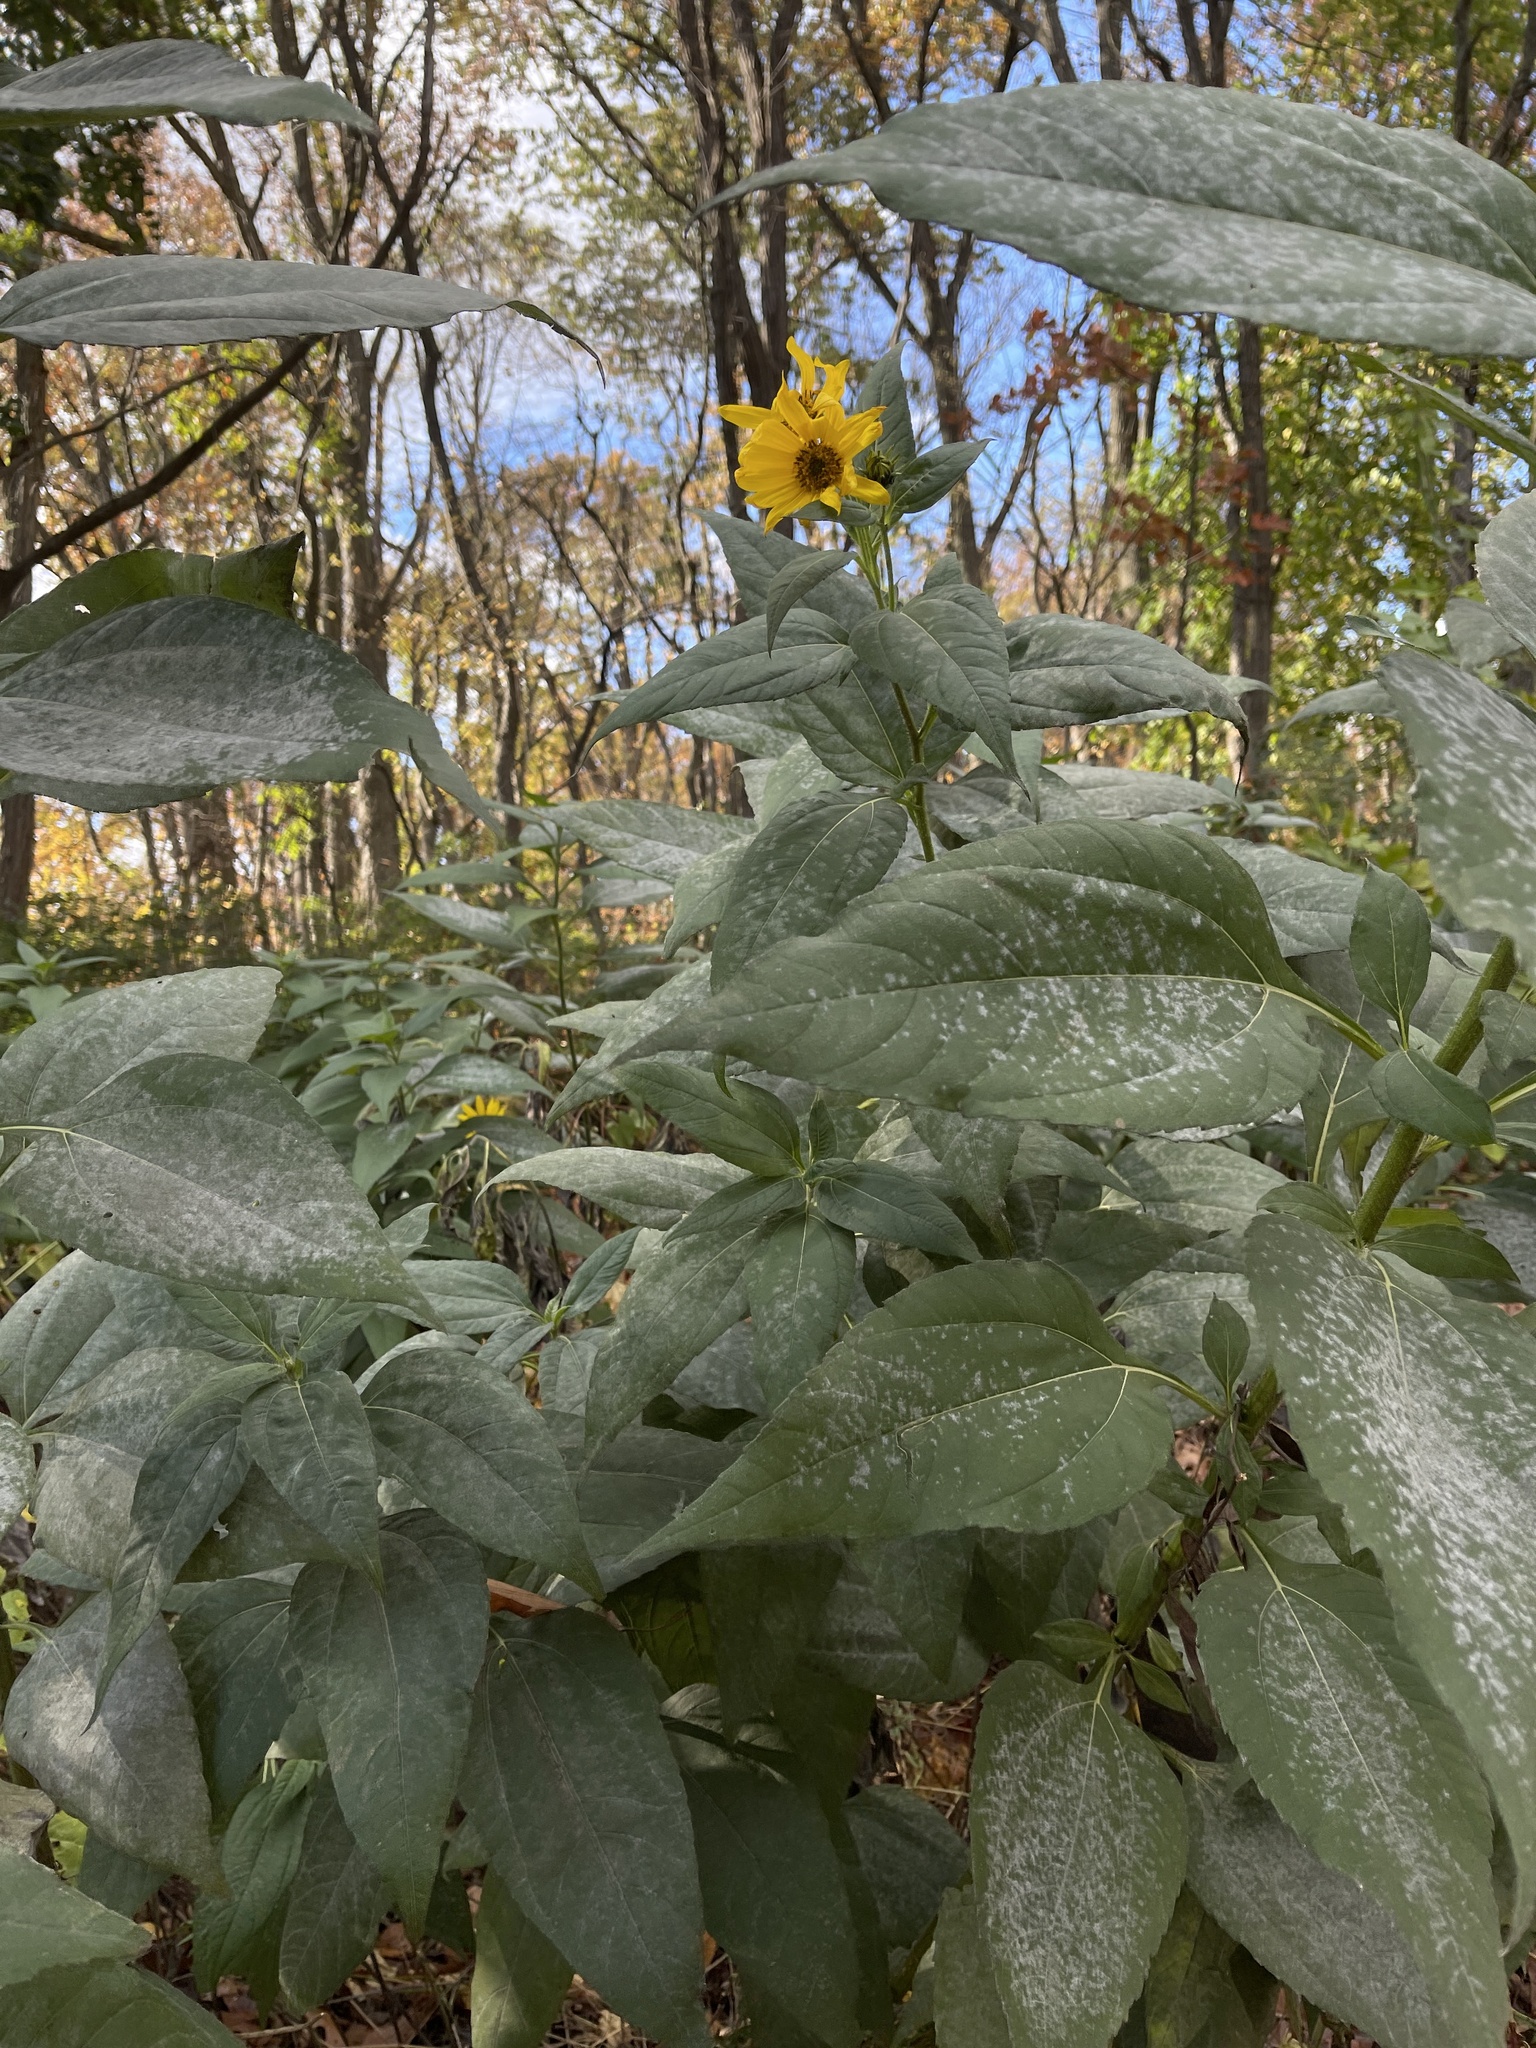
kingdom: Plantae
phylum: Tracheophyta
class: Magnoliopsida
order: Asterales
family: Asteraceae
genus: Helianthus
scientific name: Helianthus tuberosus
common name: Jerusalem artichoke
